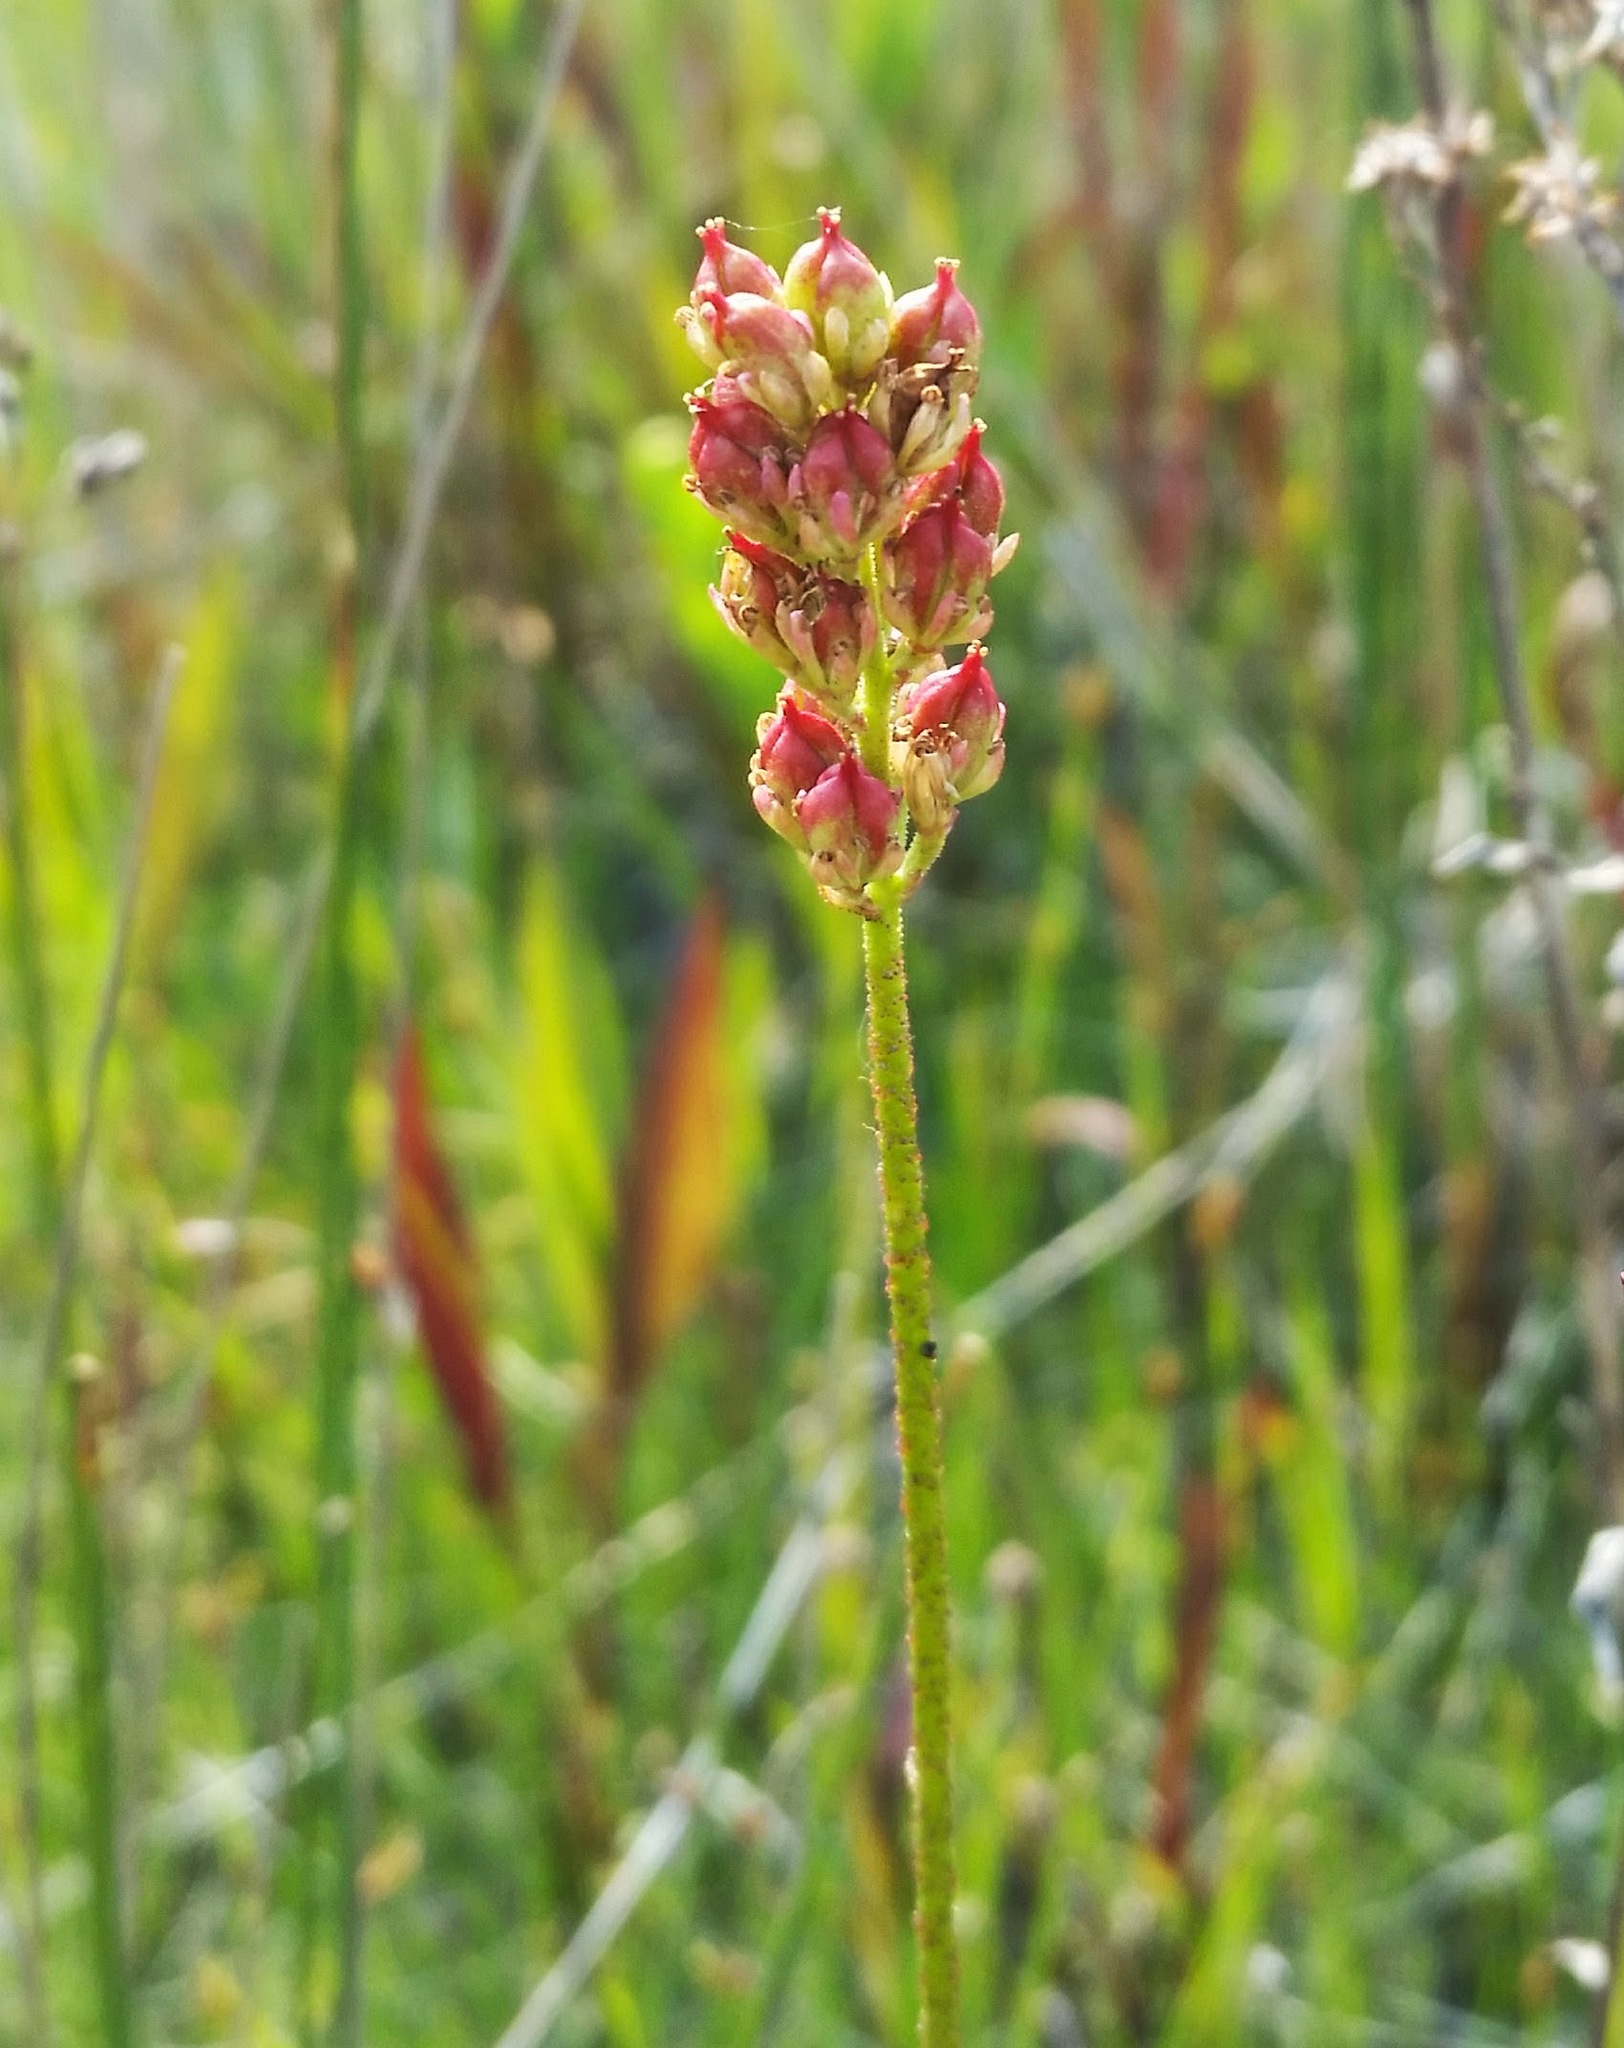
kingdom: Plantae
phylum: Tracheophyta
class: Liliopsida
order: Alismatales
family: Tofieldiaceae
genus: Triantha
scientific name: Triantha glutinosa
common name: Glutinous tofieldia
